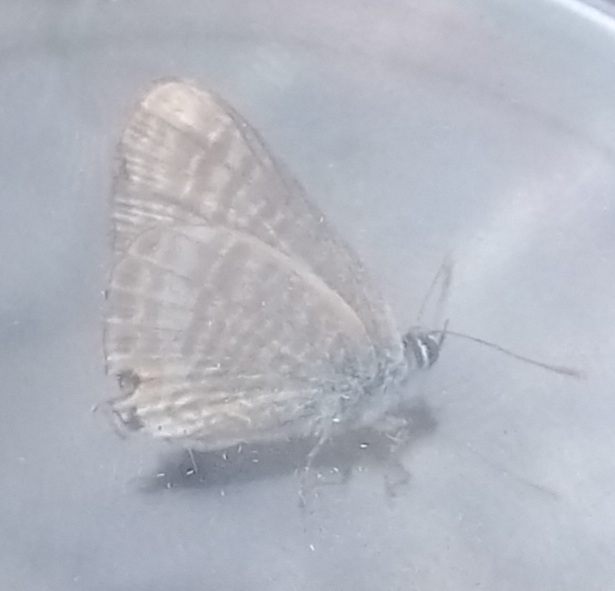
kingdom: Animalia
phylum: Arthropoda
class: Insecta
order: Lepidoptera
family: Lycaenidae
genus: Lampides
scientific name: Lampides boeticus
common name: Long-tailed blue
